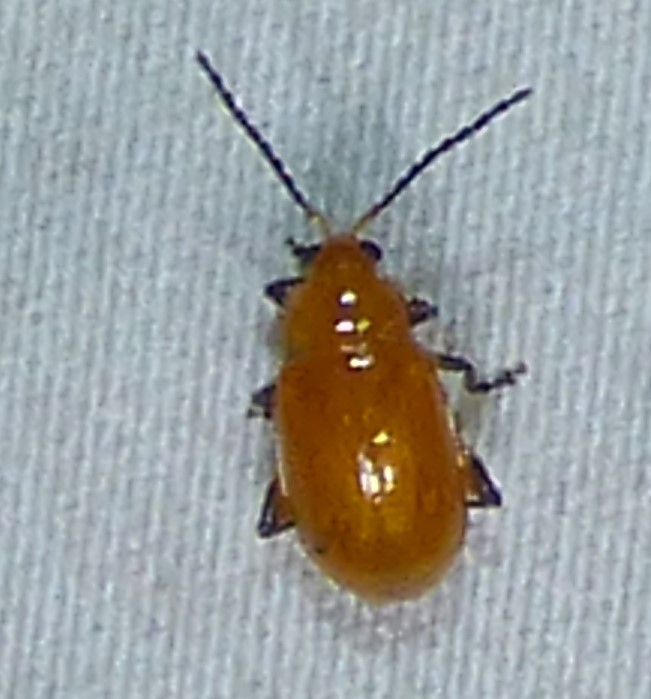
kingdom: Animalia
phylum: Arthropoda
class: Insecta
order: Coleoptera
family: Chrysomelidae
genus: Parchicola
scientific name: Parchicola tibialis
